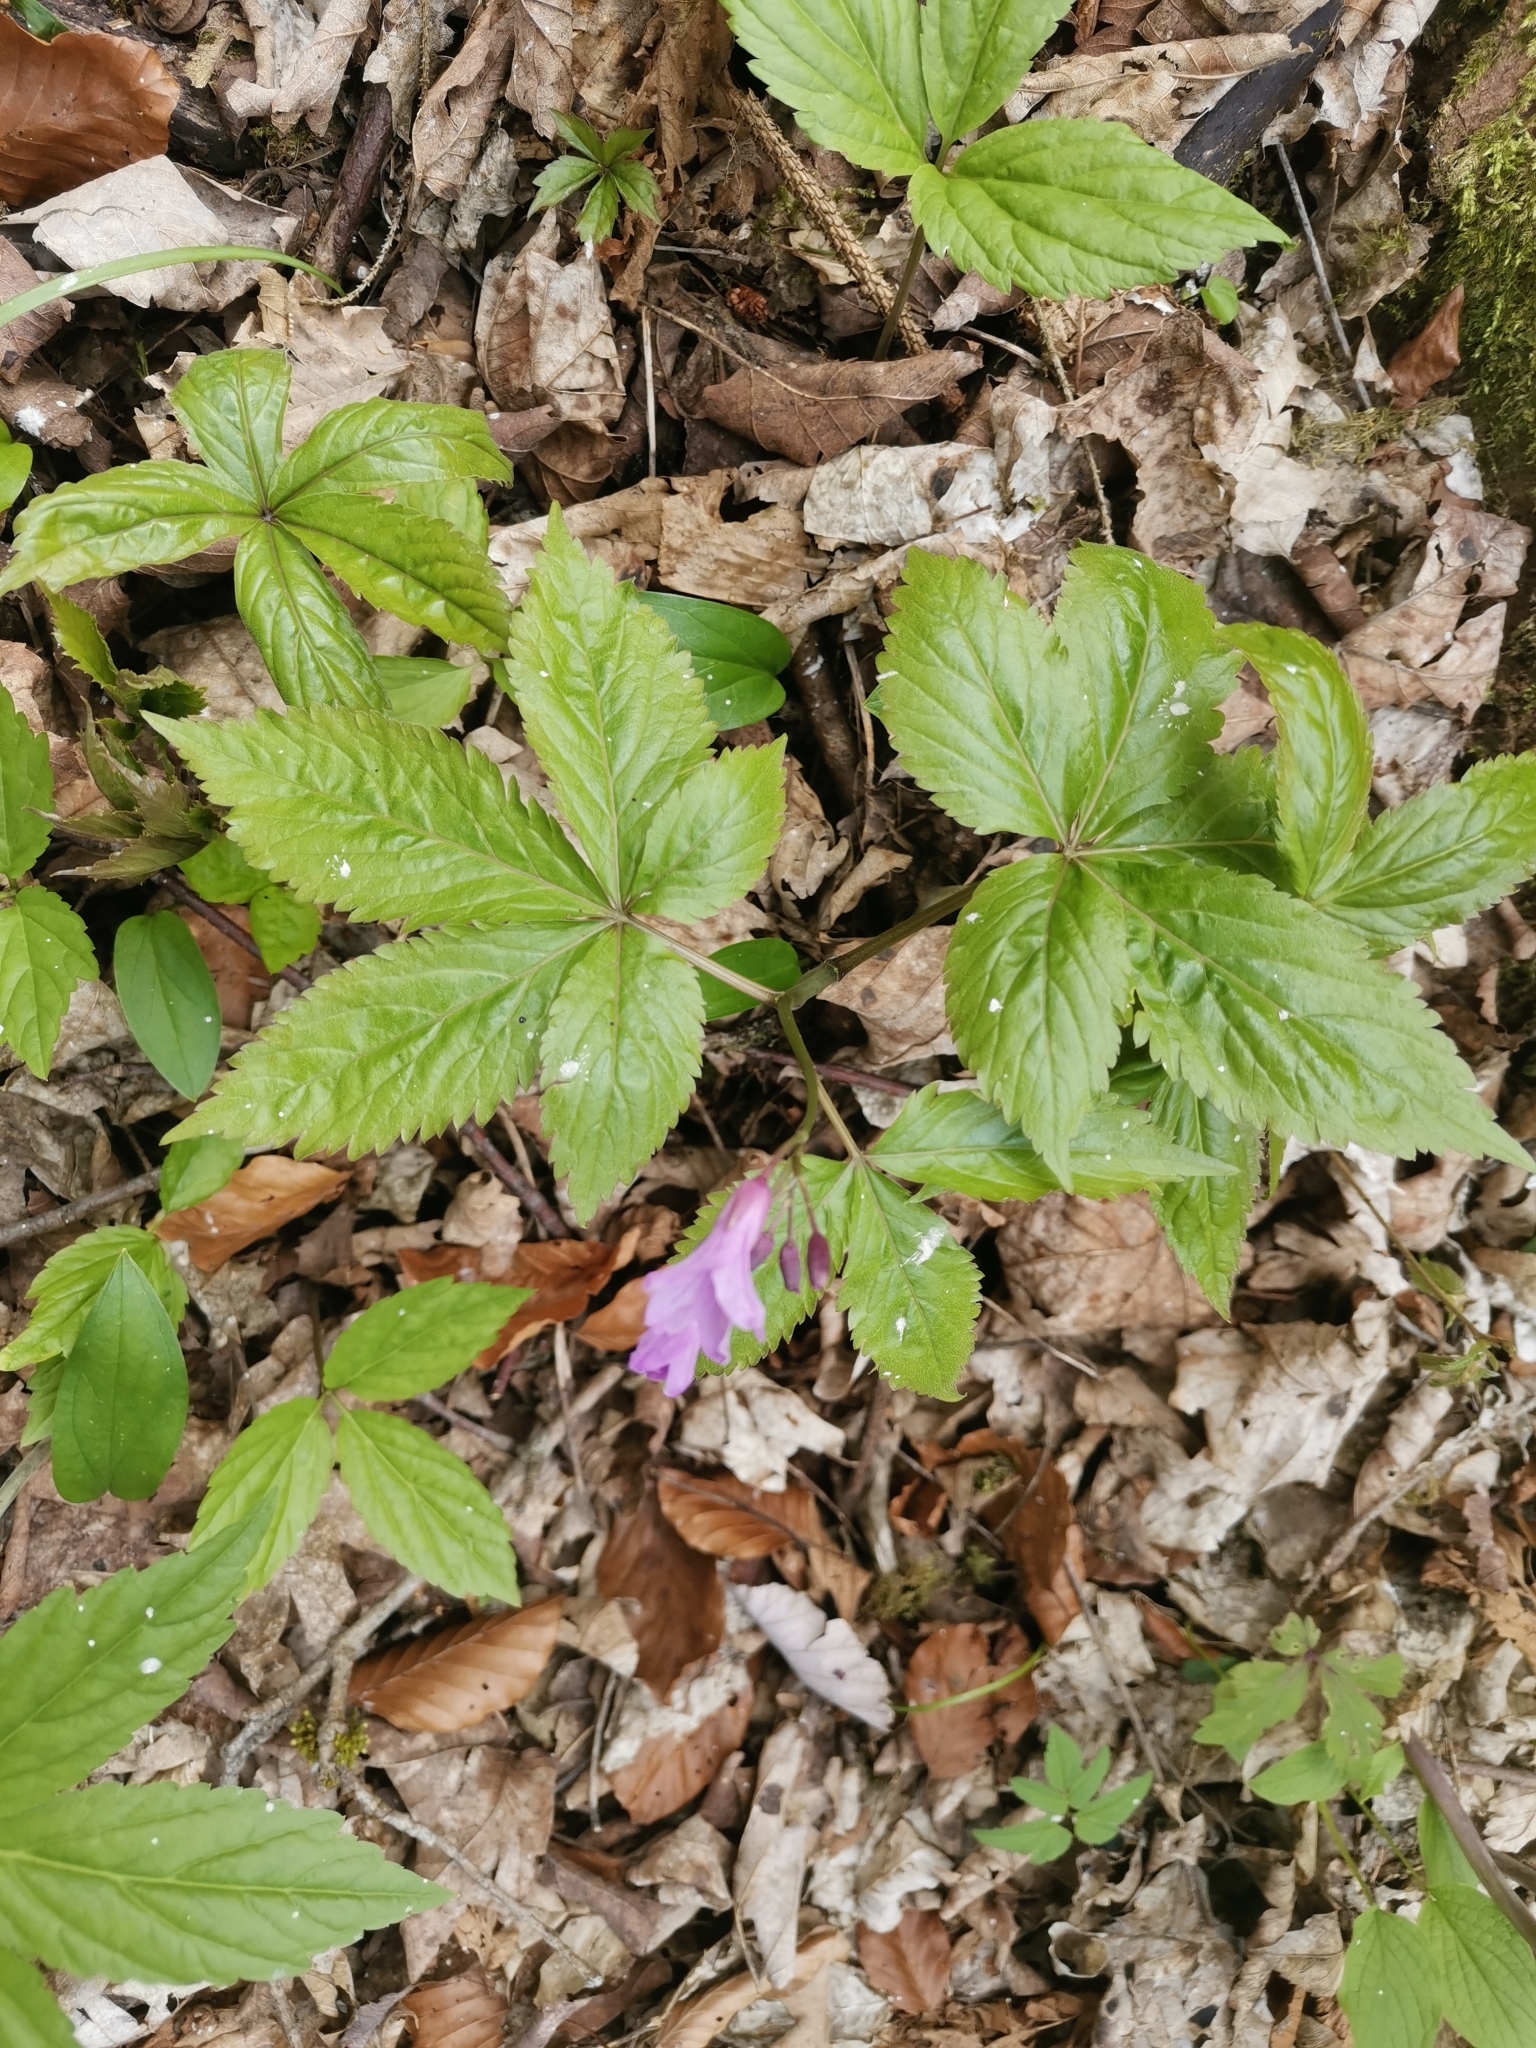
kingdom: Plantae
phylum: Tracheophyta
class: Magnoliopsida
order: Brassicales
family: Brassicaceae
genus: Cardamine
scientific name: Cardamine pentaphyllos
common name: Five-leaflet bitter-cress
